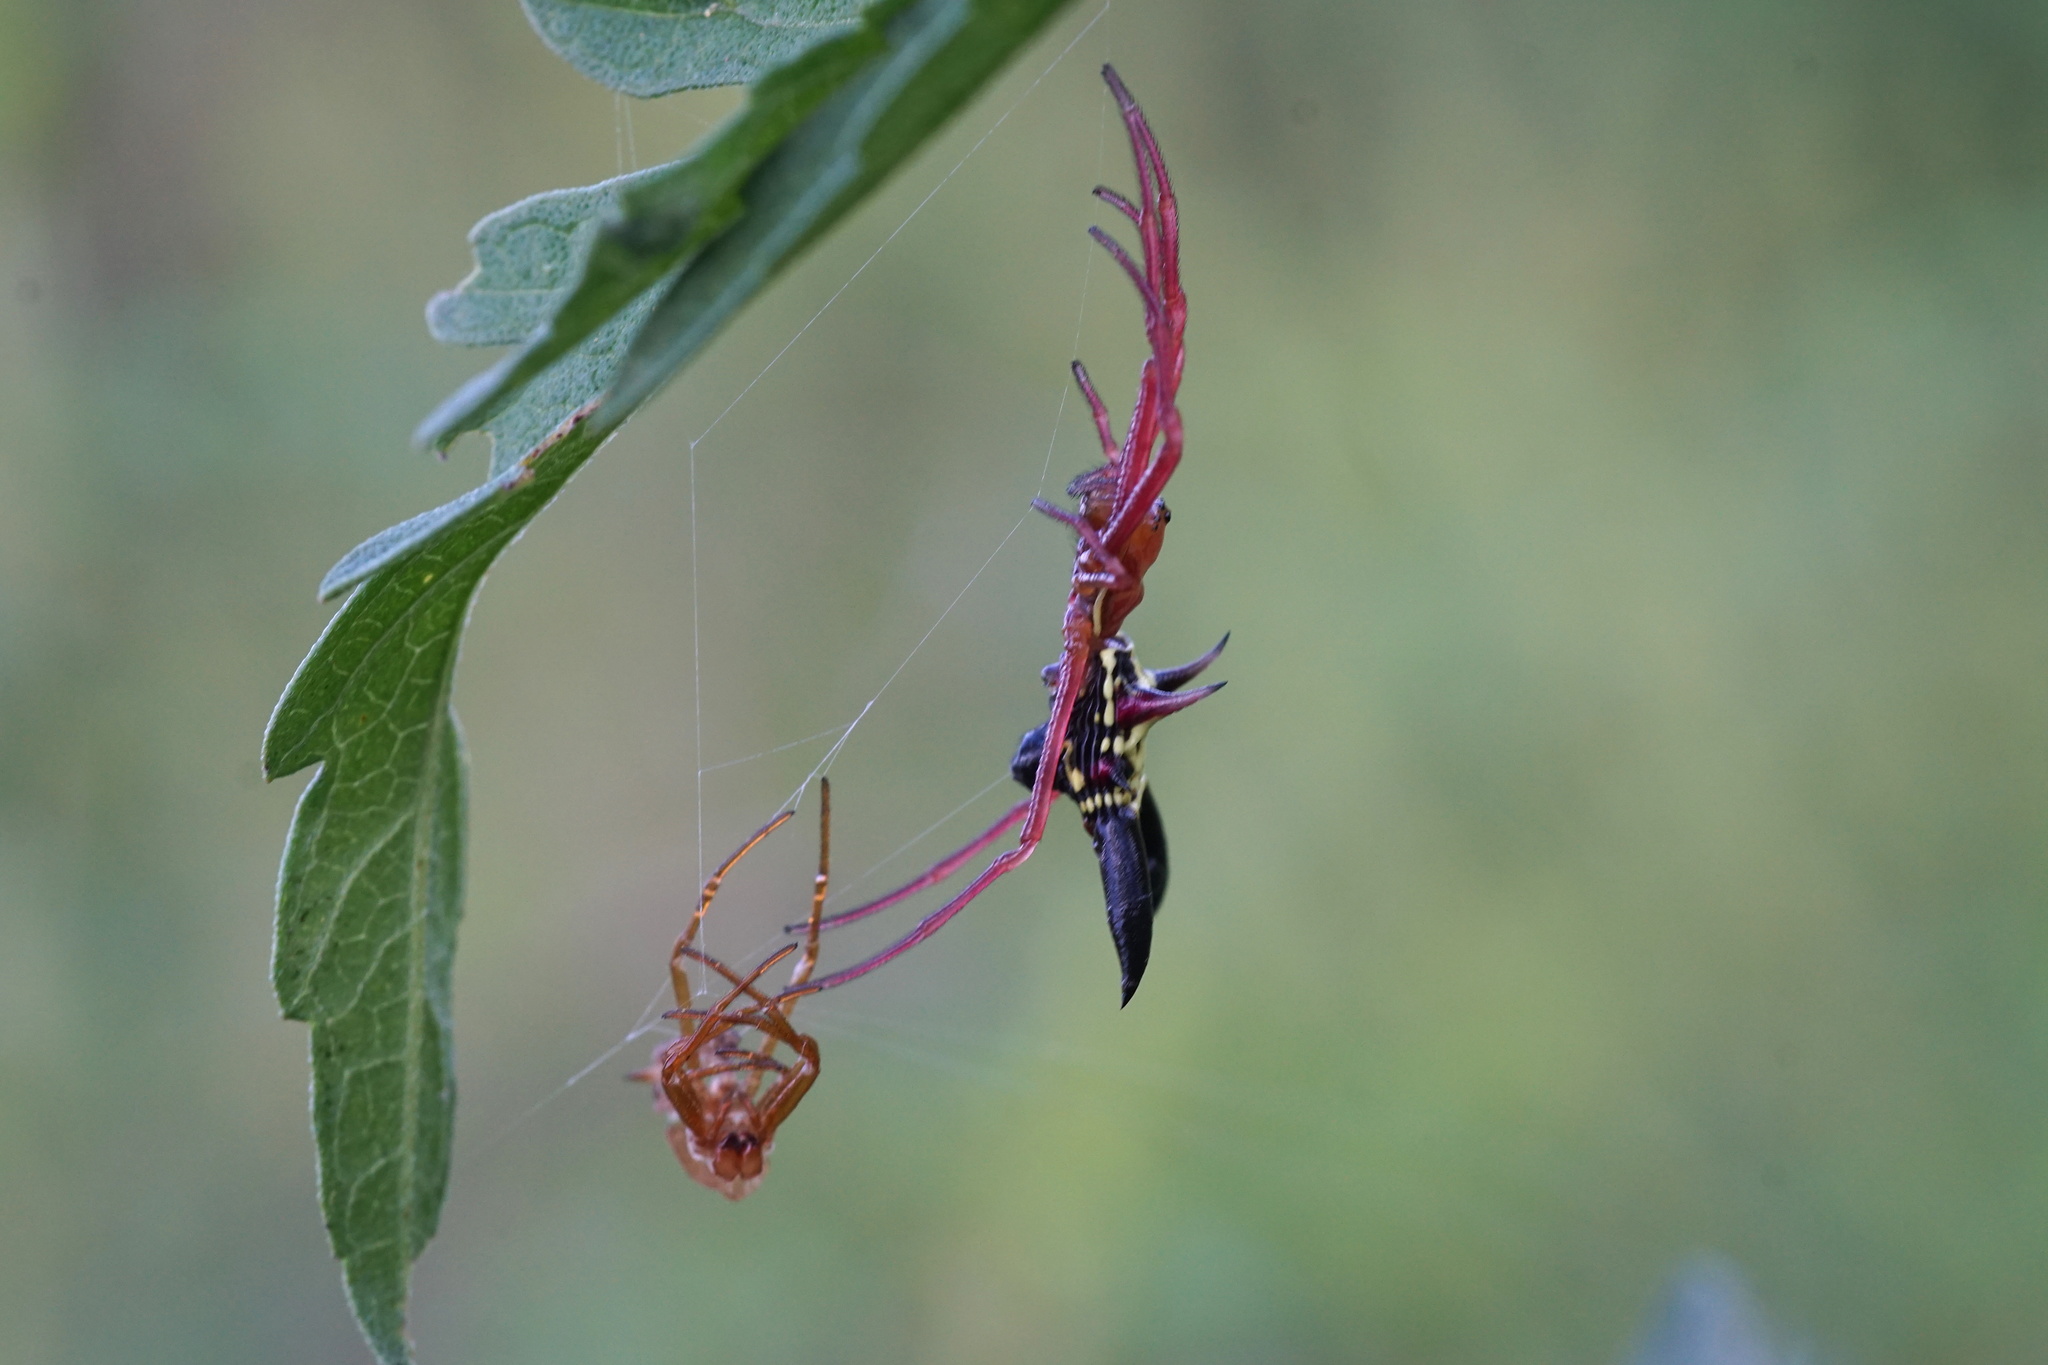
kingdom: Animalia
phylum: Arthropoda
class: Arachnida
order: Araneae
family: Araneidae
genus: Micrathena
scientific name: Micrathena sagittata
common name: Orb weavers
